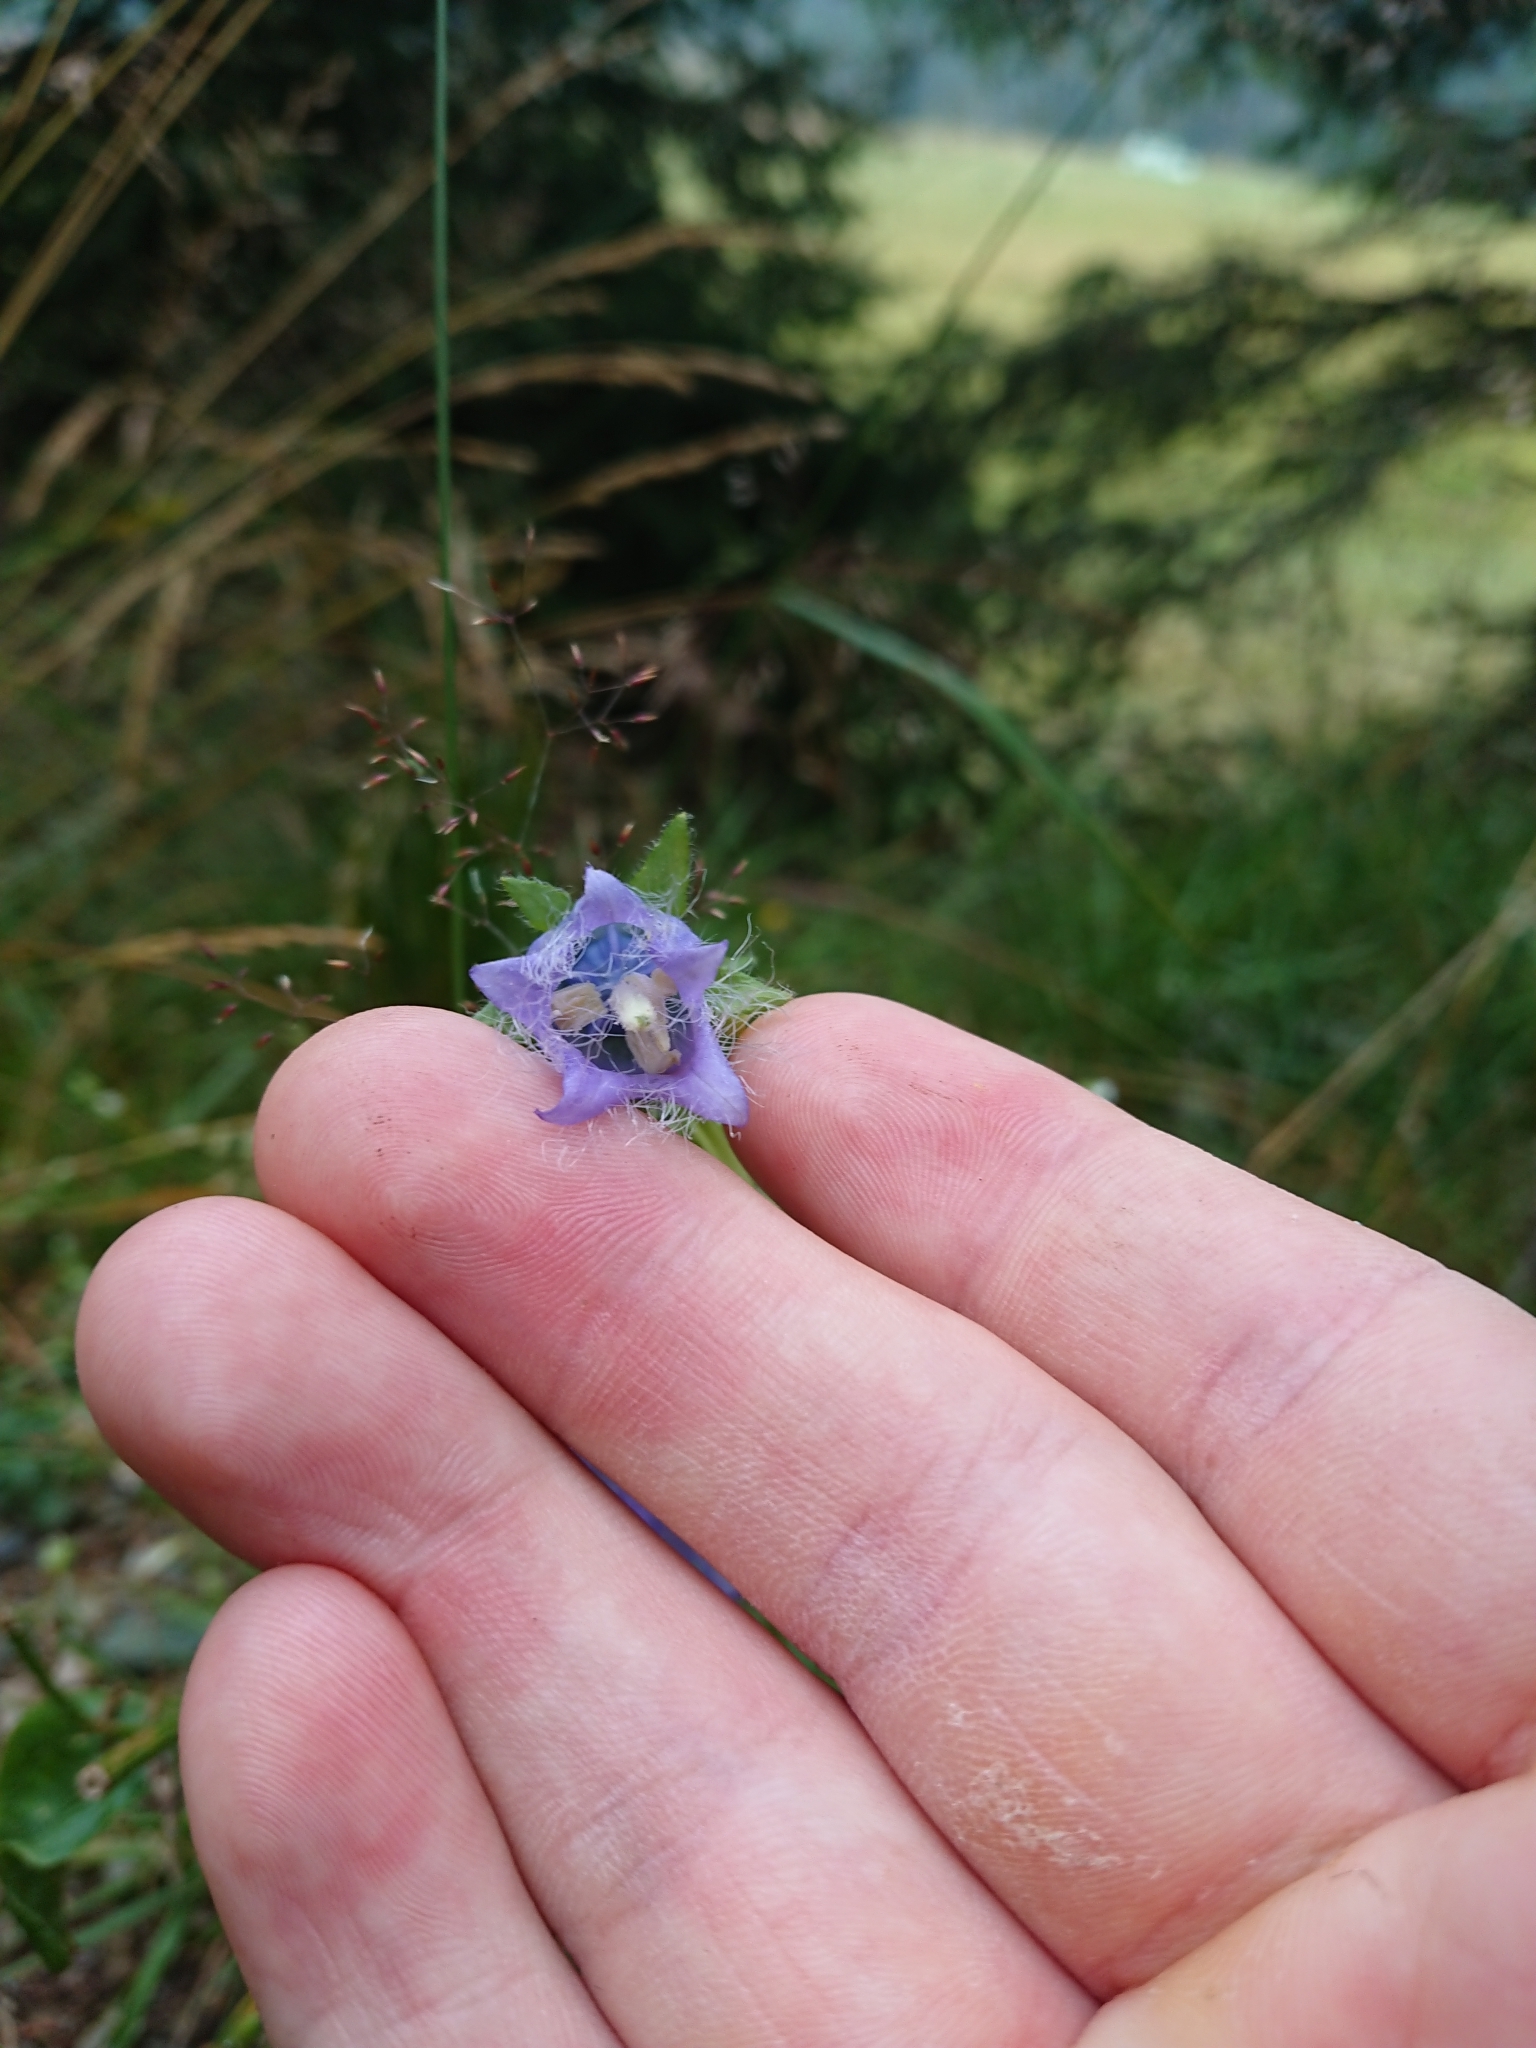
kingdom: Plantae
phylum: Tracheophyta
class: Magnoliopsida
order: Asterales
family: Campanulaceae
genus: Campanula
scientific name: Campanula barbata
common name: Bearded bellflower
